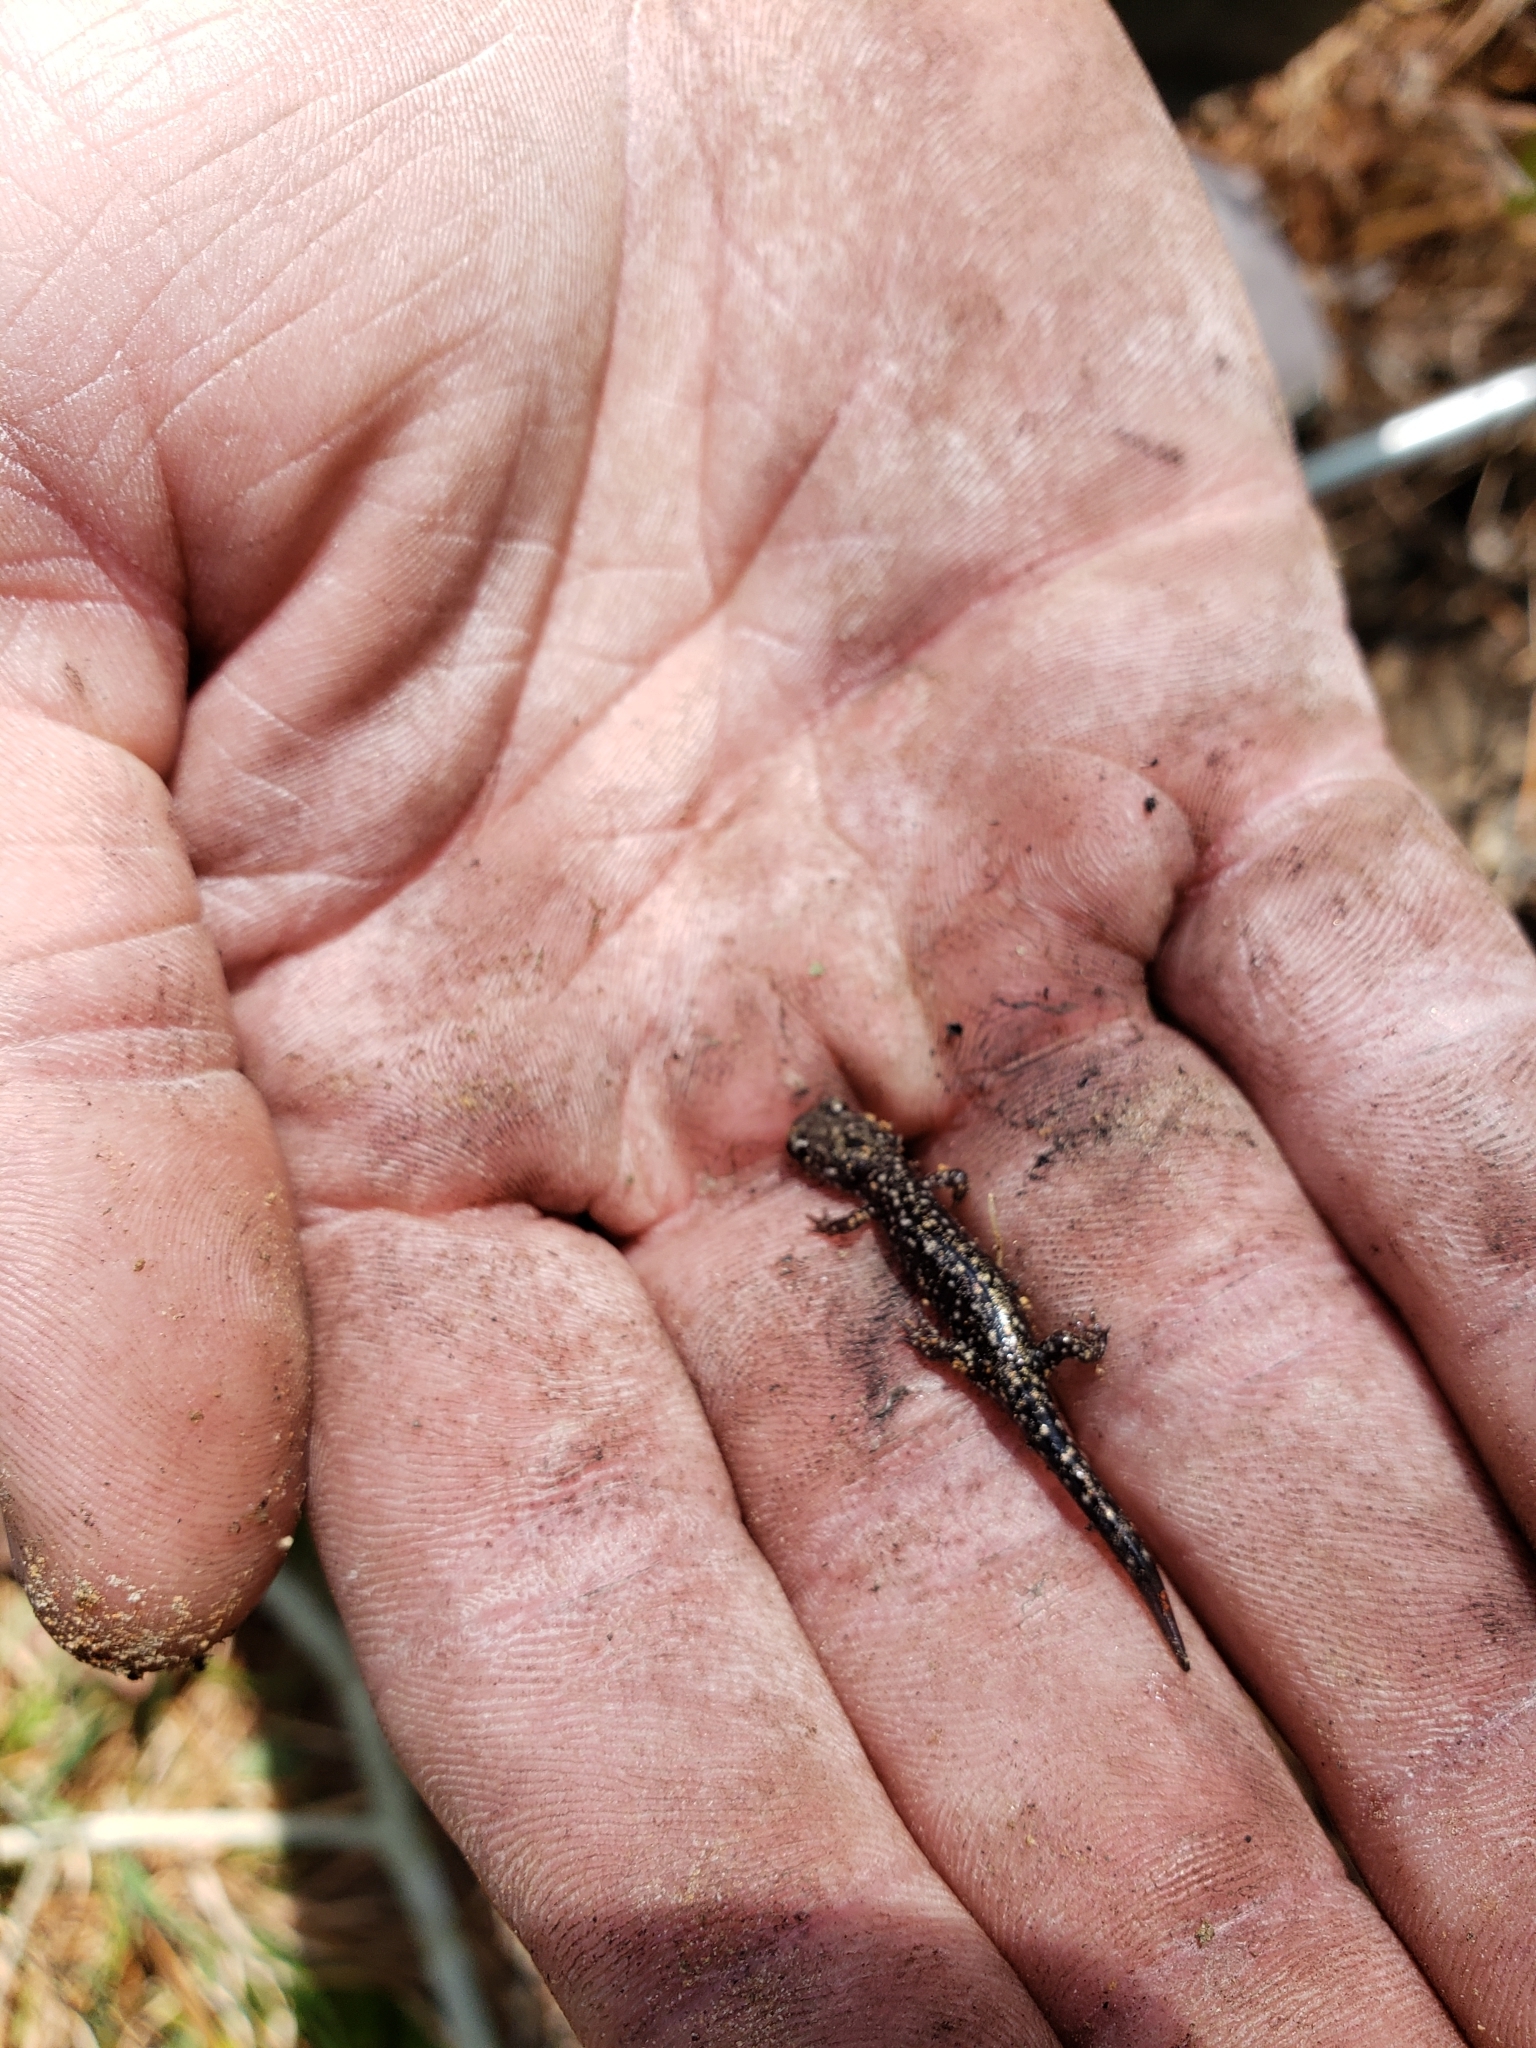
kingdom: Animalia
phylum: Chordata
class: Amphibia
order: Caudata
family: Plethodontidae
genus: Plethodon
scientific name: Plethodon mississippi
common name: Mississippi slimy salamander
